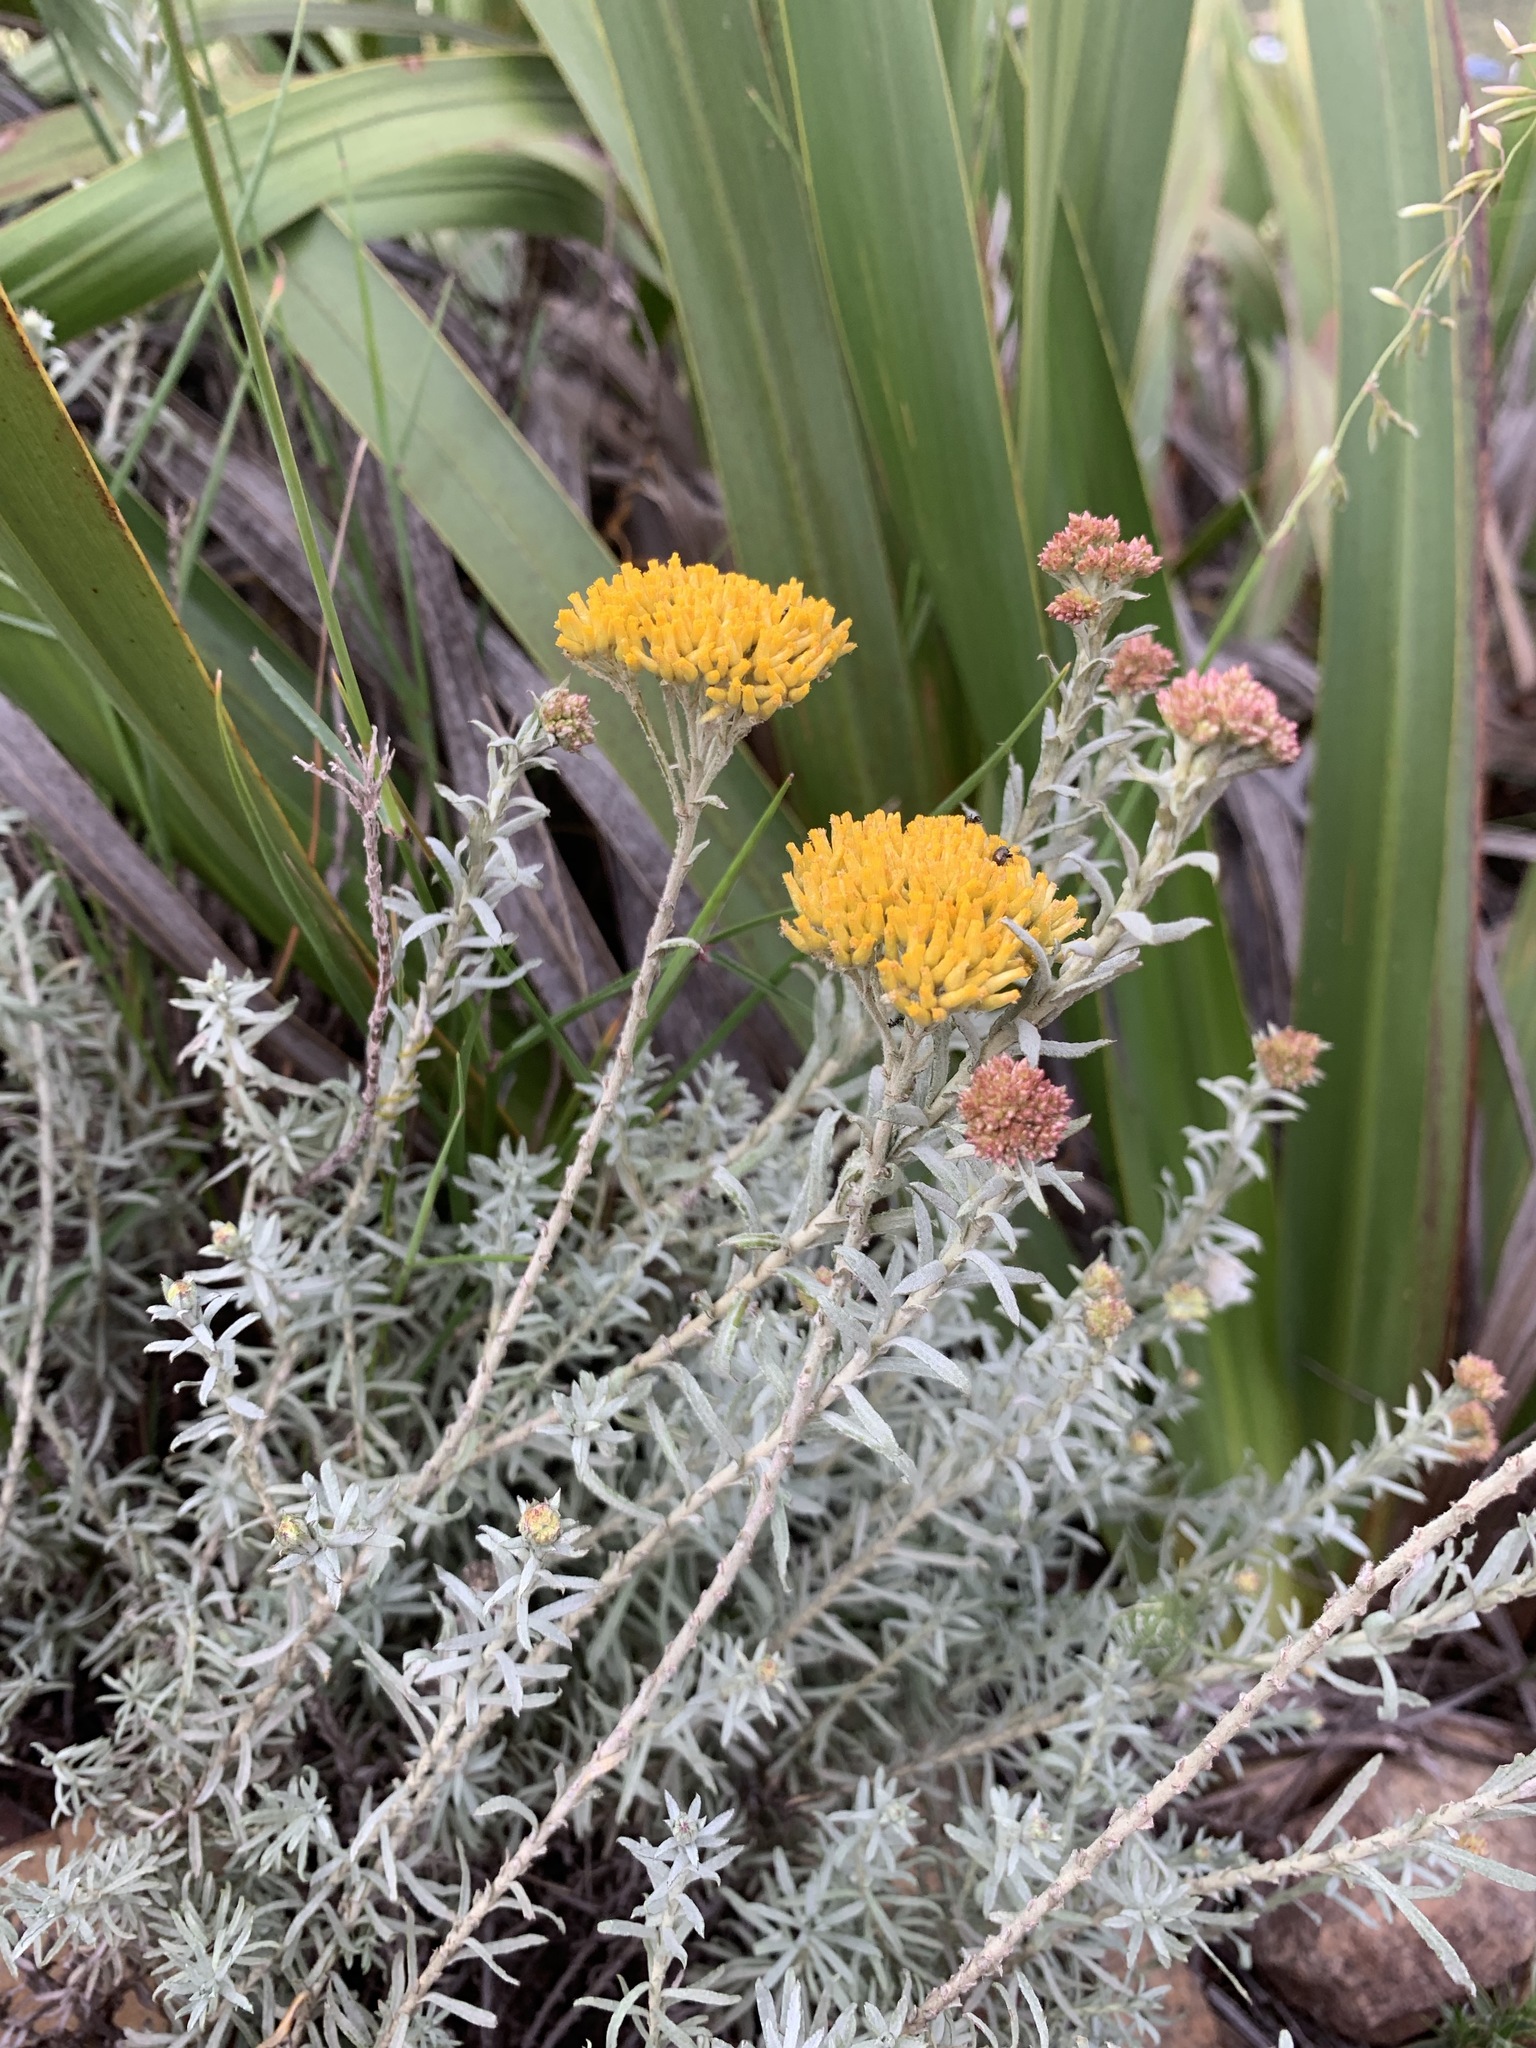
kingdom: Plantae
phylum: Tracheophyta
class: Magnoliopsida
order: Asterales
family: Asteraceae
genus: Helichrysum
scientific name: Helichrysum cymosum
